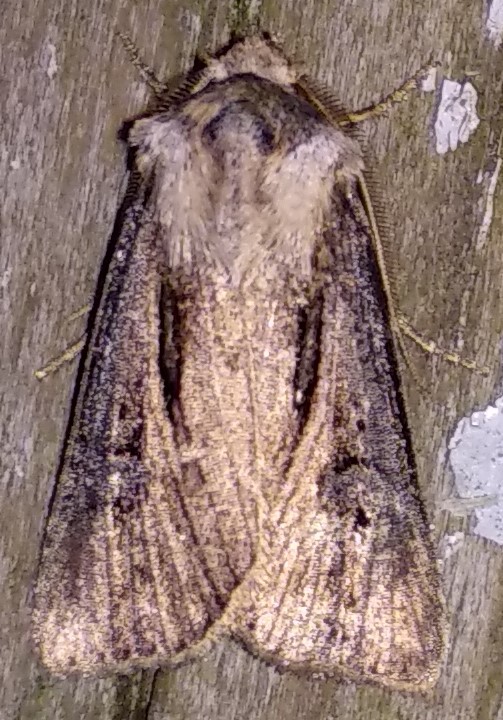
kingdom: Animalia
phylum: Arthropoda
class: Insecta
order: Lepidoptera
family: Noctuidae
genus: Agrotis
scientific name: Agrotis venerabilis
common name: Venerable dart
